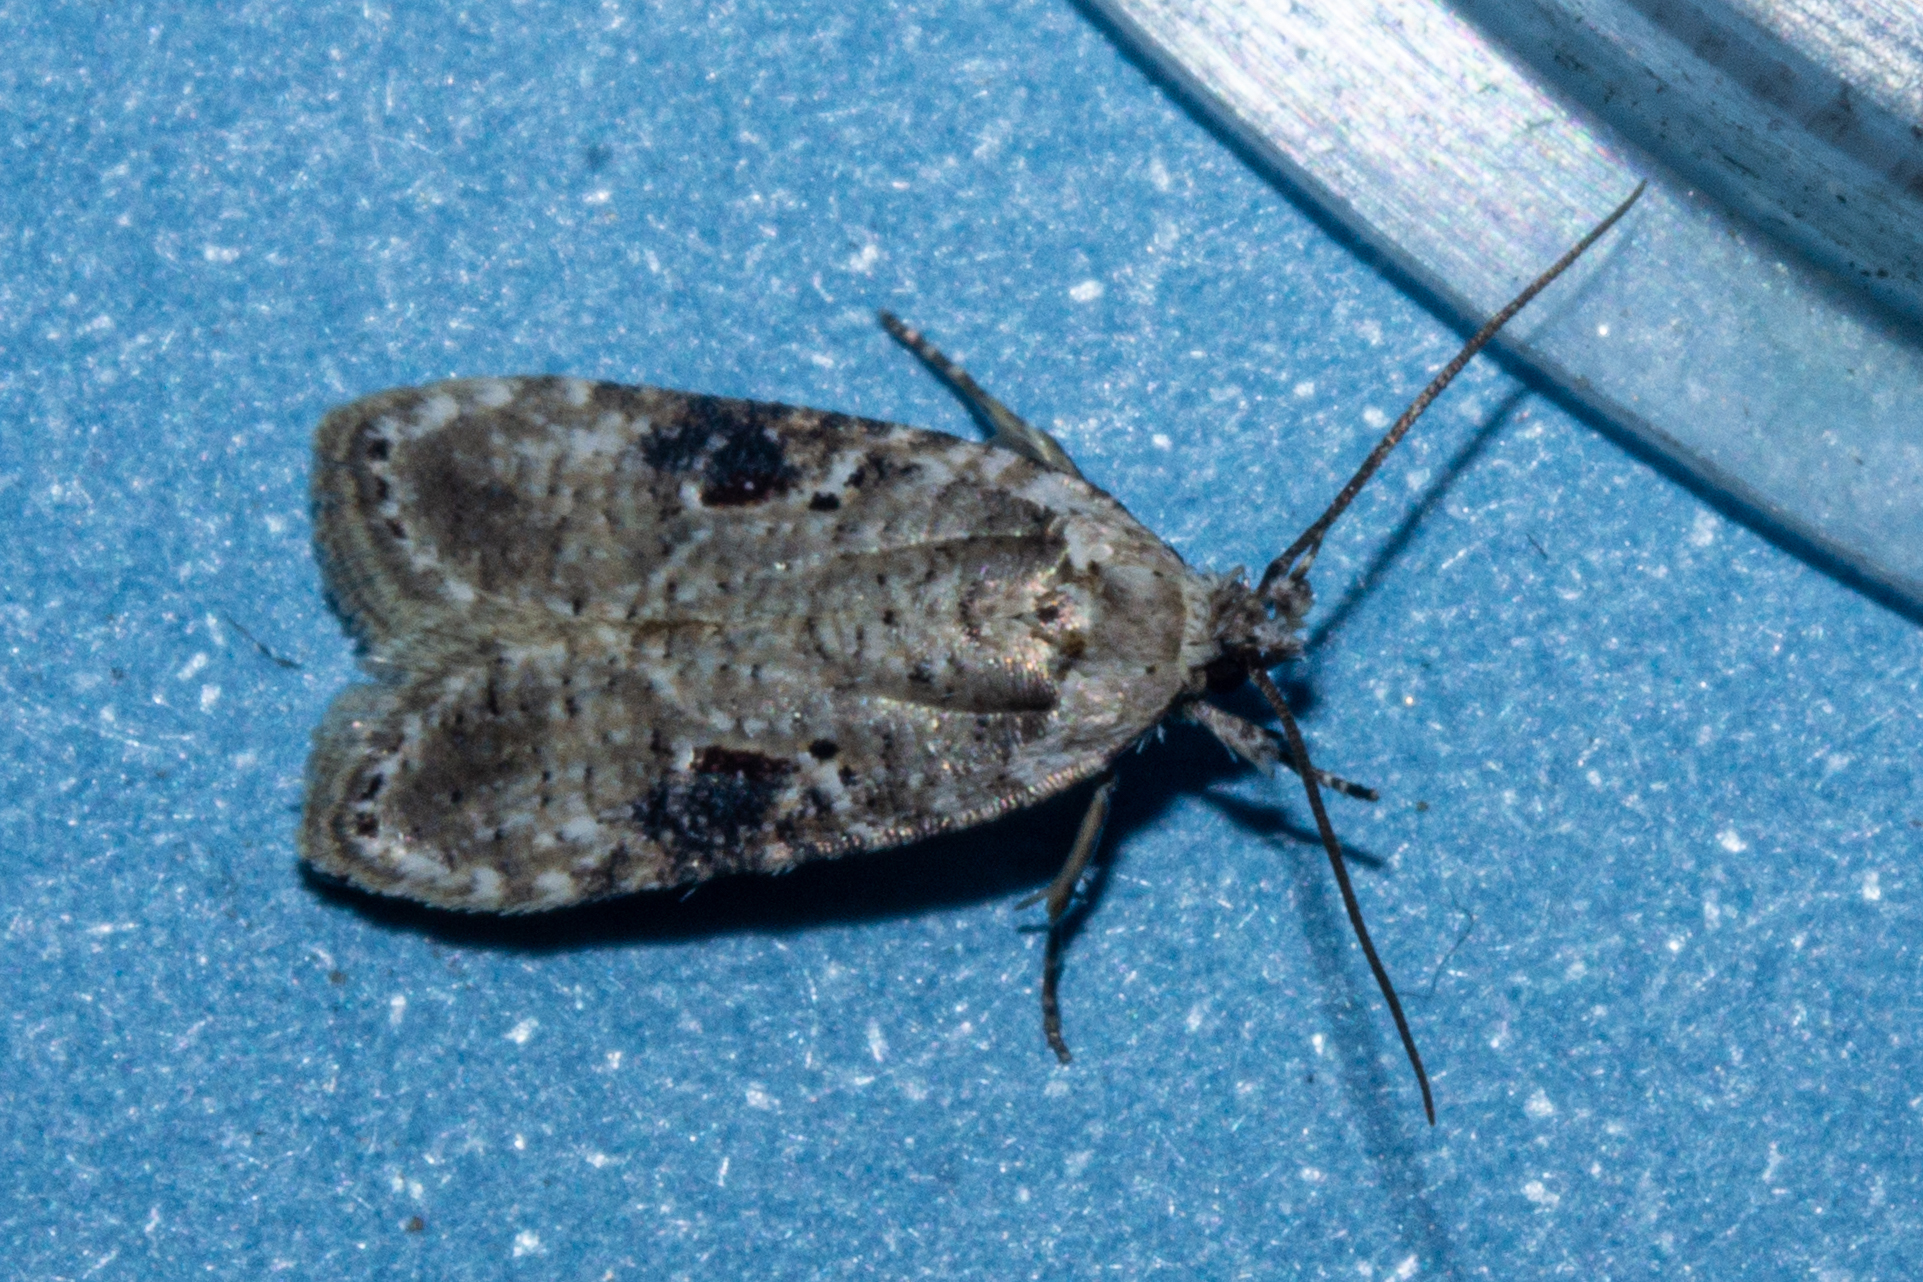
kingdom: Animalia
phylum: Arthropoda
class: Insecta
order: Lepidoptera
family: Depressariidae
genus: Agonopterix
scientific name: Agonopterix alstroemeriana
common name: Moth
